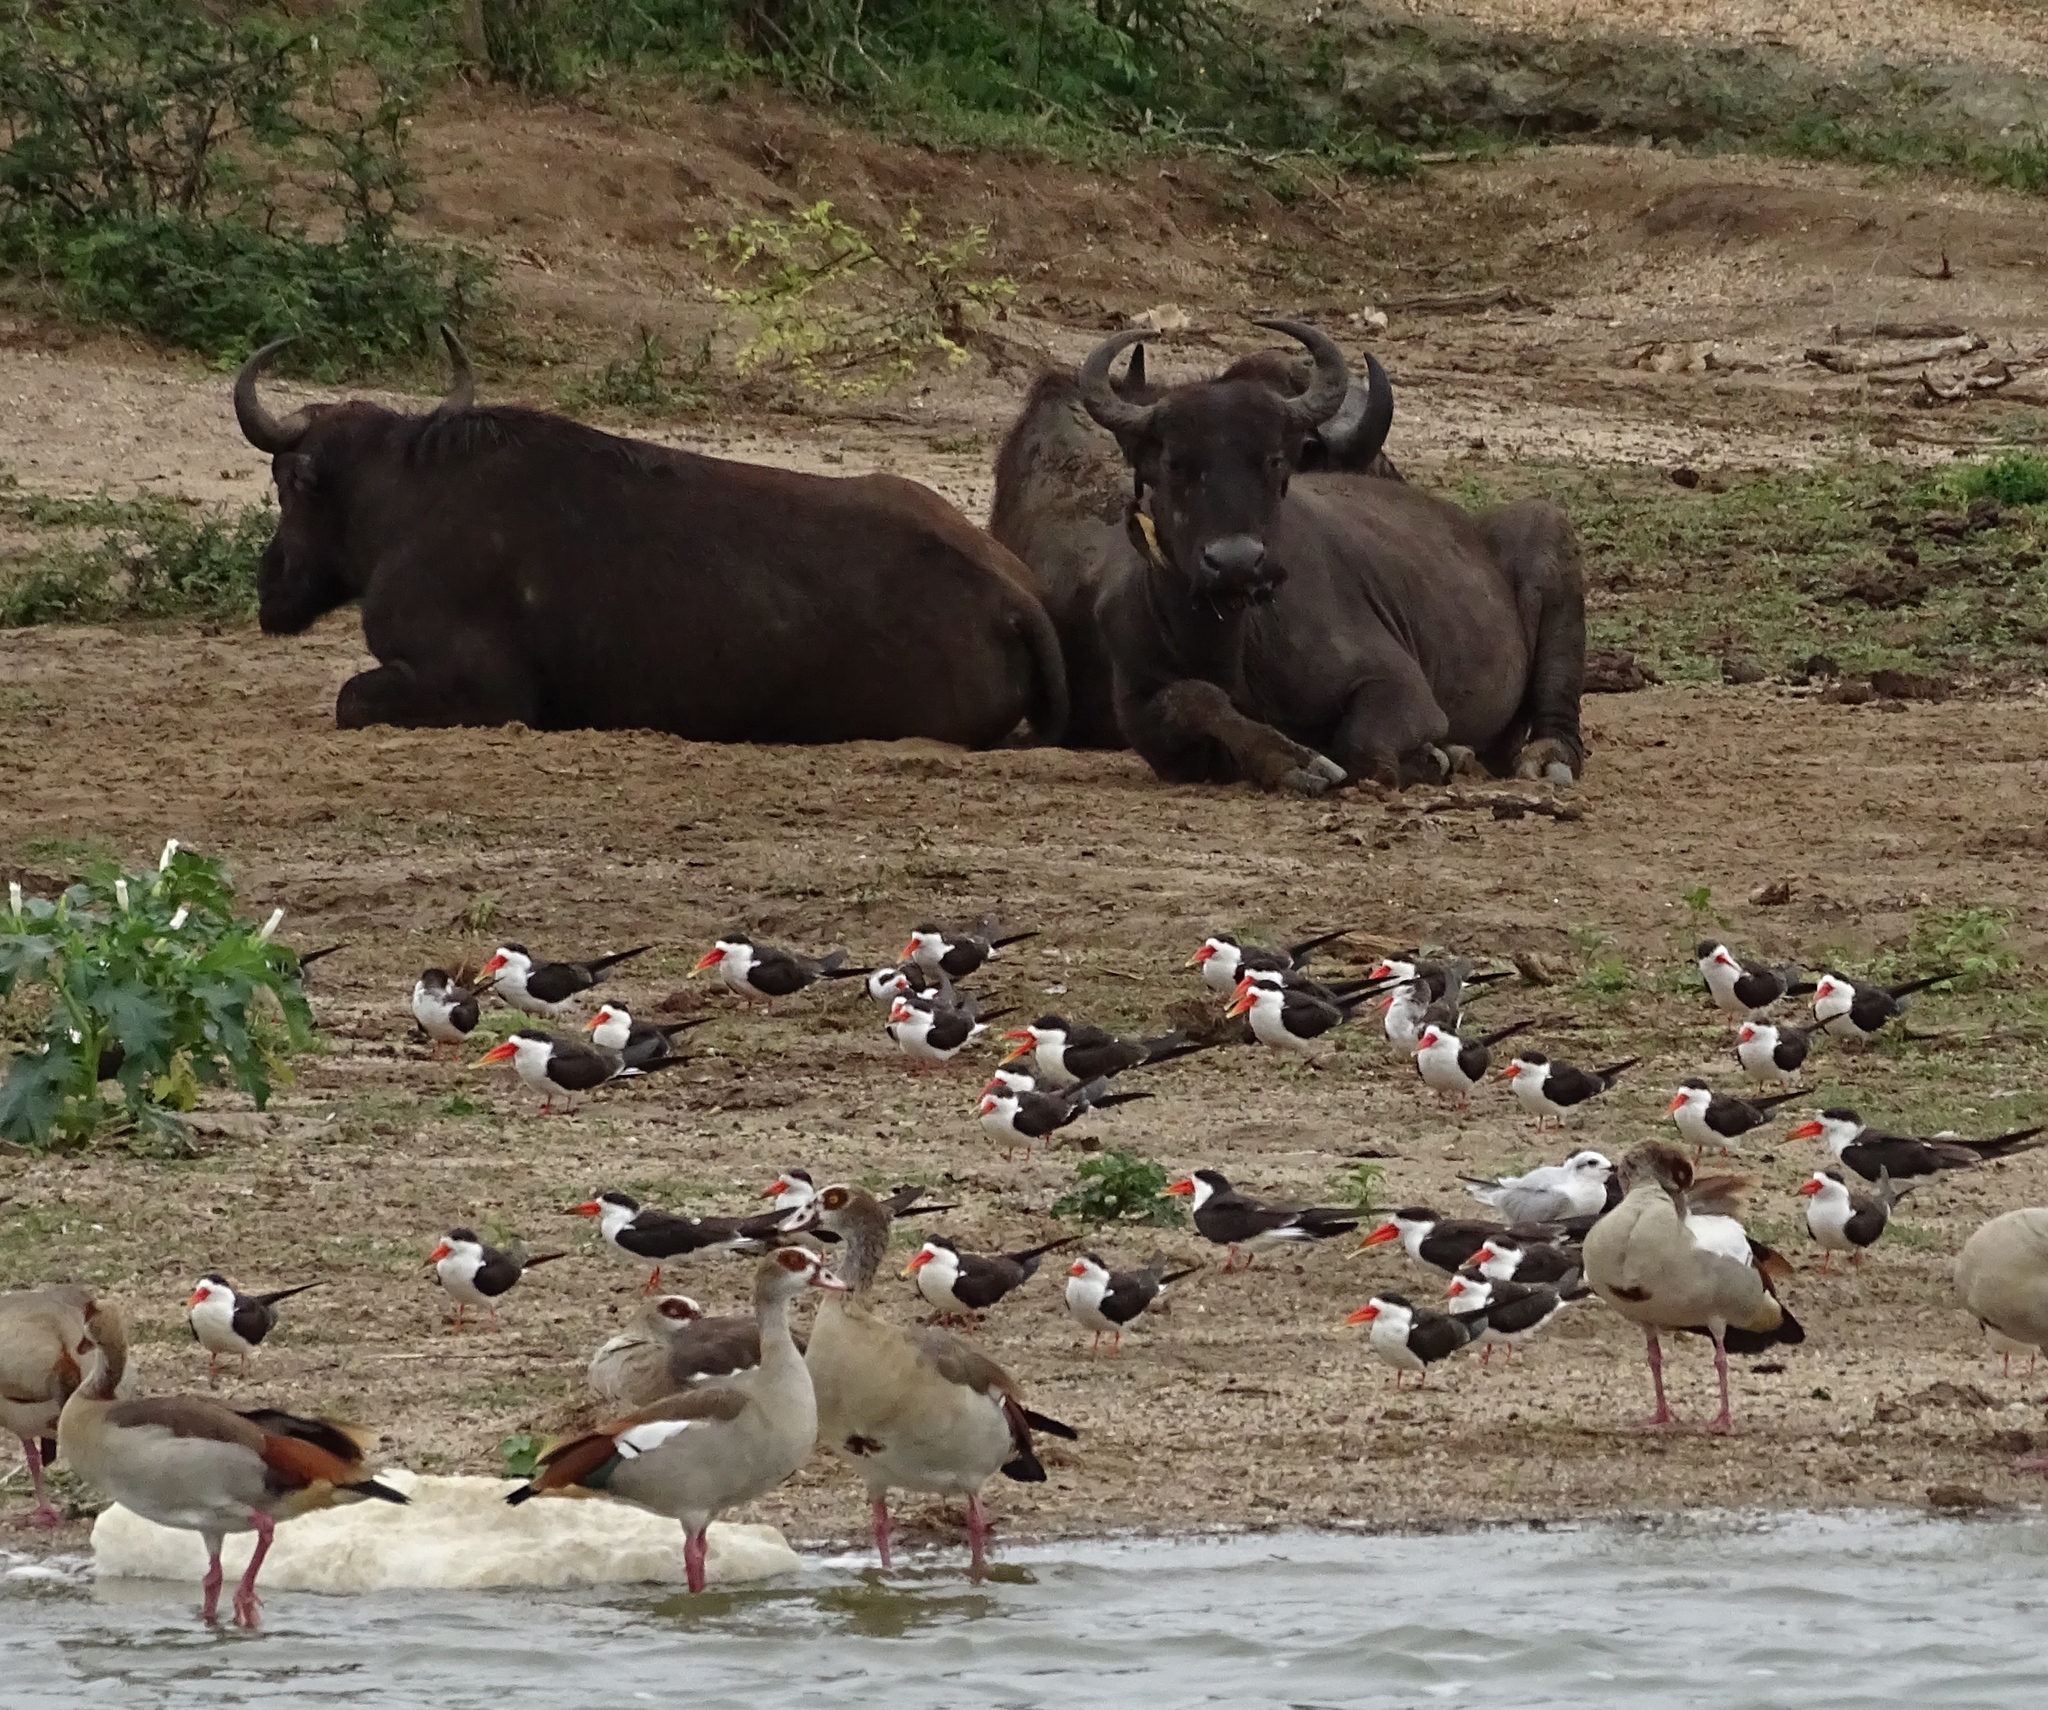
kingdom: Animalia
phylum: Chordata
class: Mammalia
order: Artiodactyla
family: Bovidae
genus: Syncerus
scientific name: Syncerus caffer
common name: African buffalo
